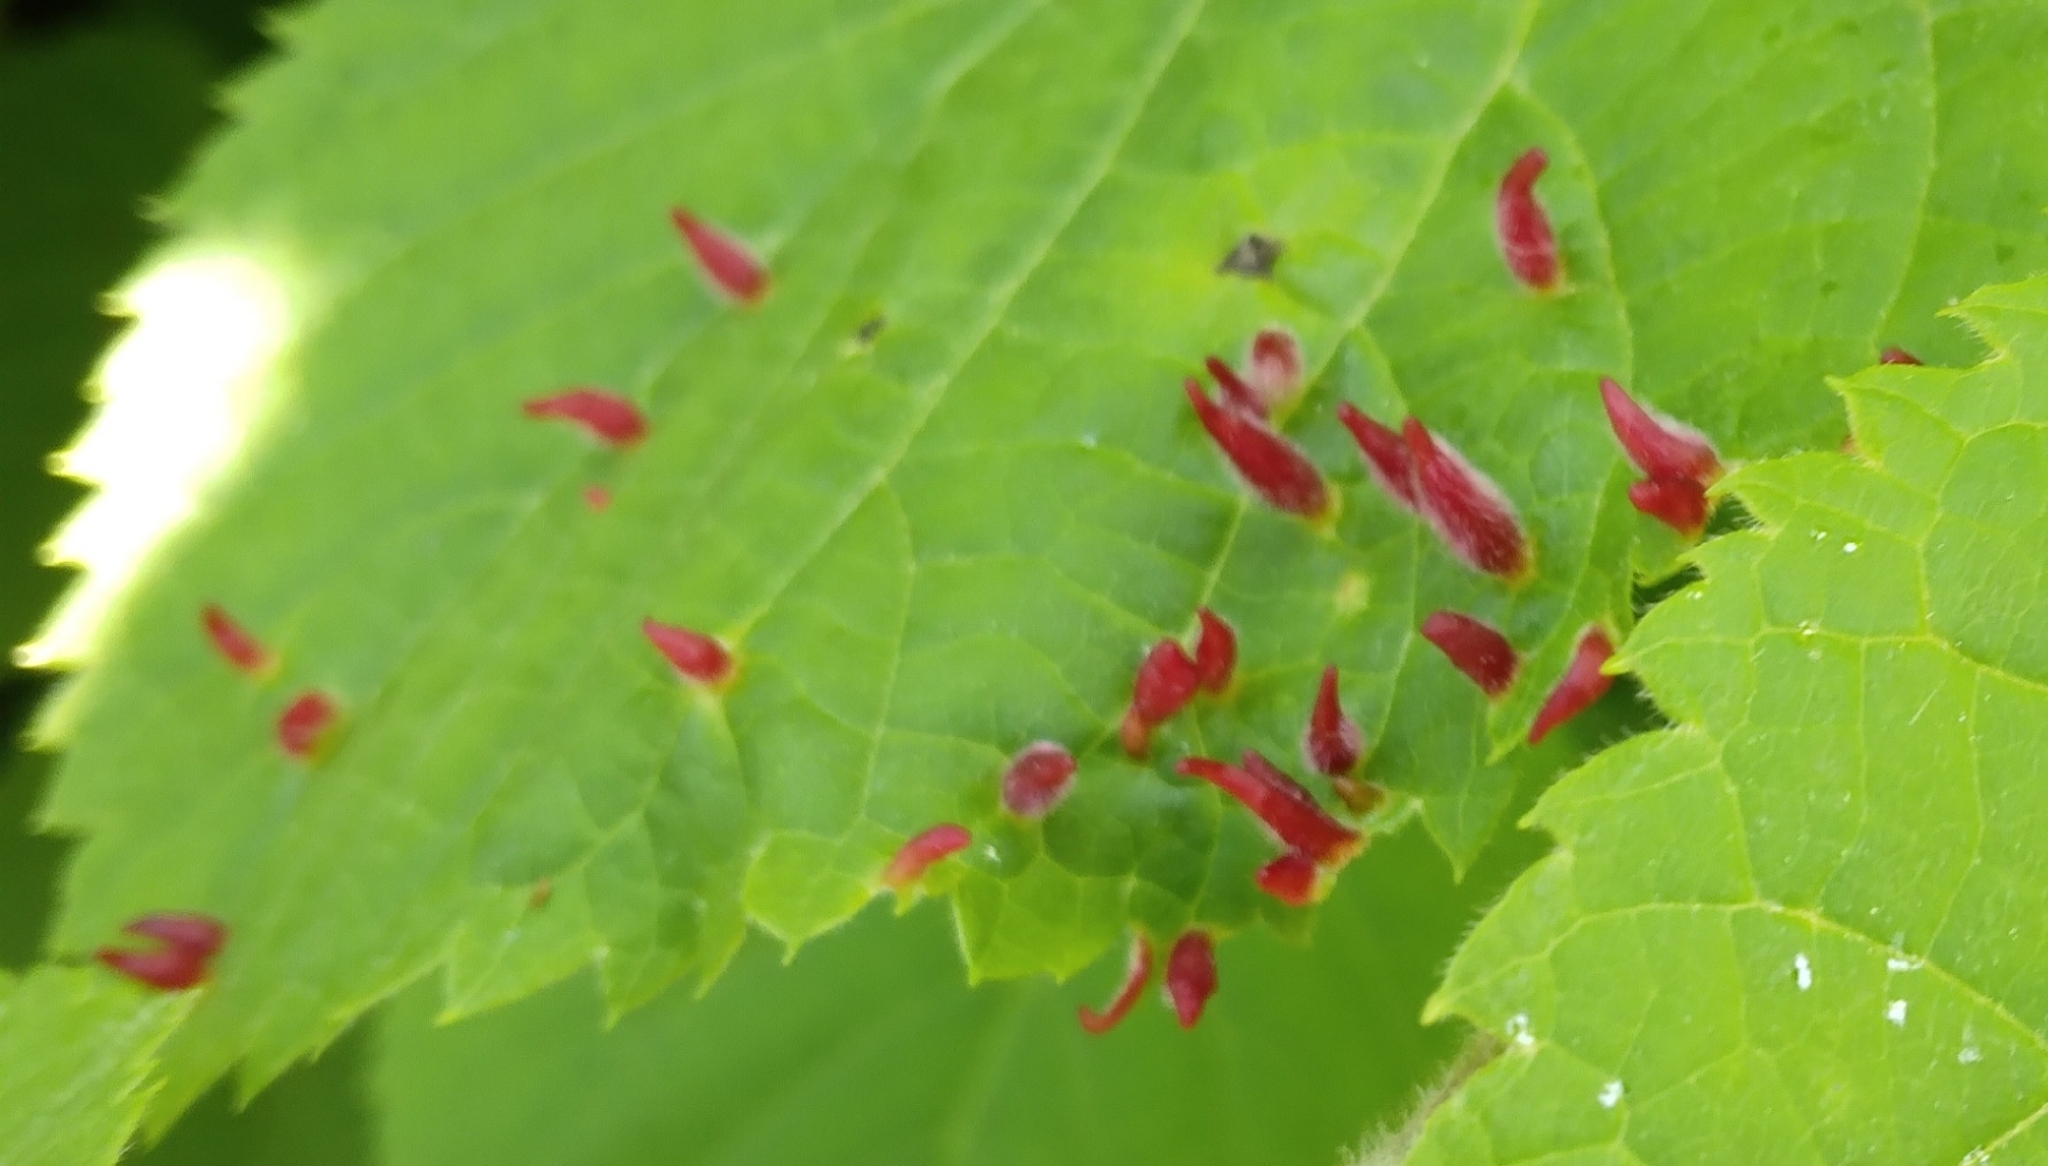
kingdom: Animalia
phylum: Arthropoda
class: Arachnida
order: Trombidiformes
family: Eriophyidae
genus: Eriophyes
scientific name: Eriophyes tiliae
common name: Red nail gall mite
